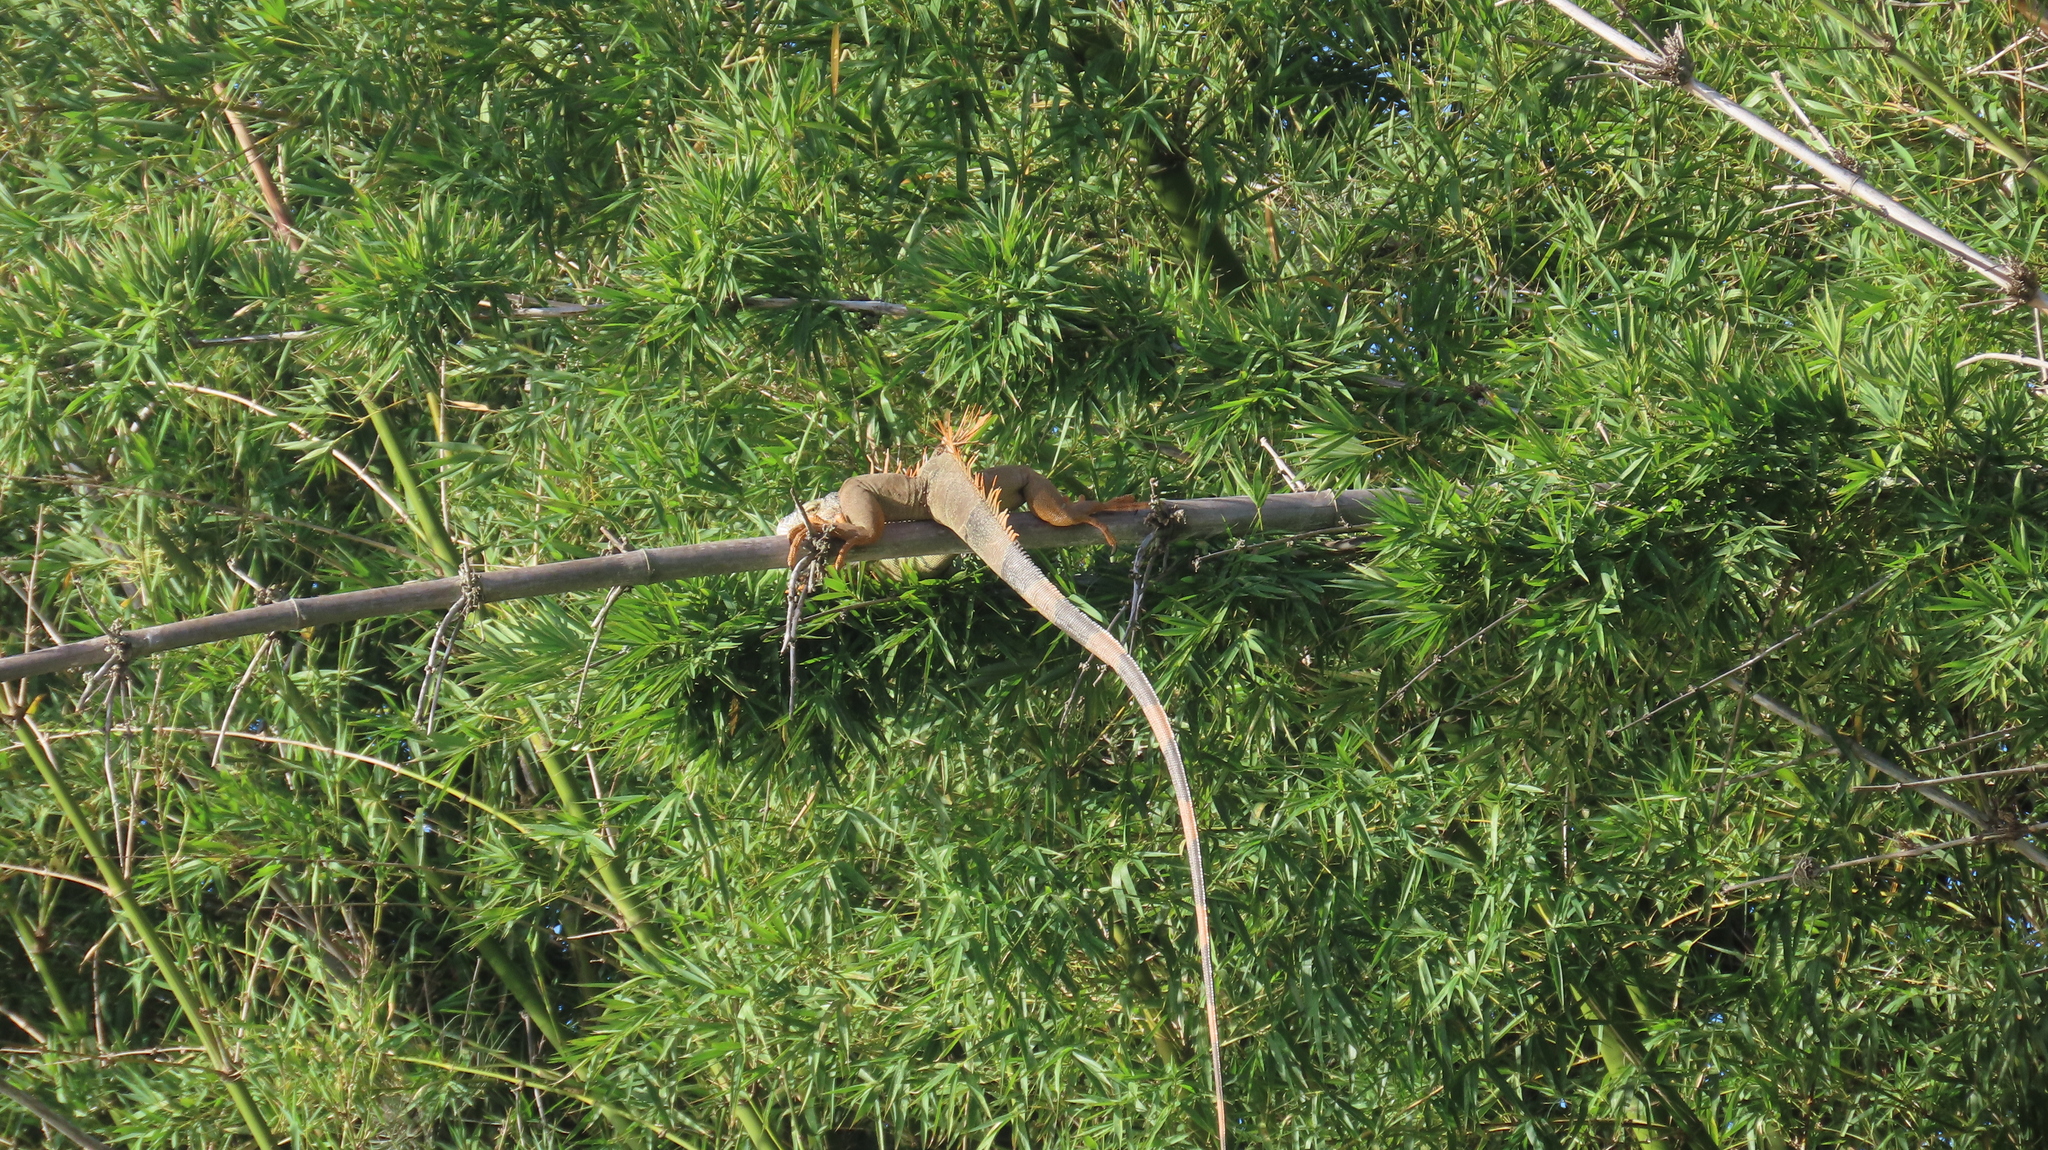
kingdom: Animalia
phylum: Chordata
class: Squamata
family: Iguanidae
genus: Iguana
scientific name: Iguana iguana
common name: Green iguana
